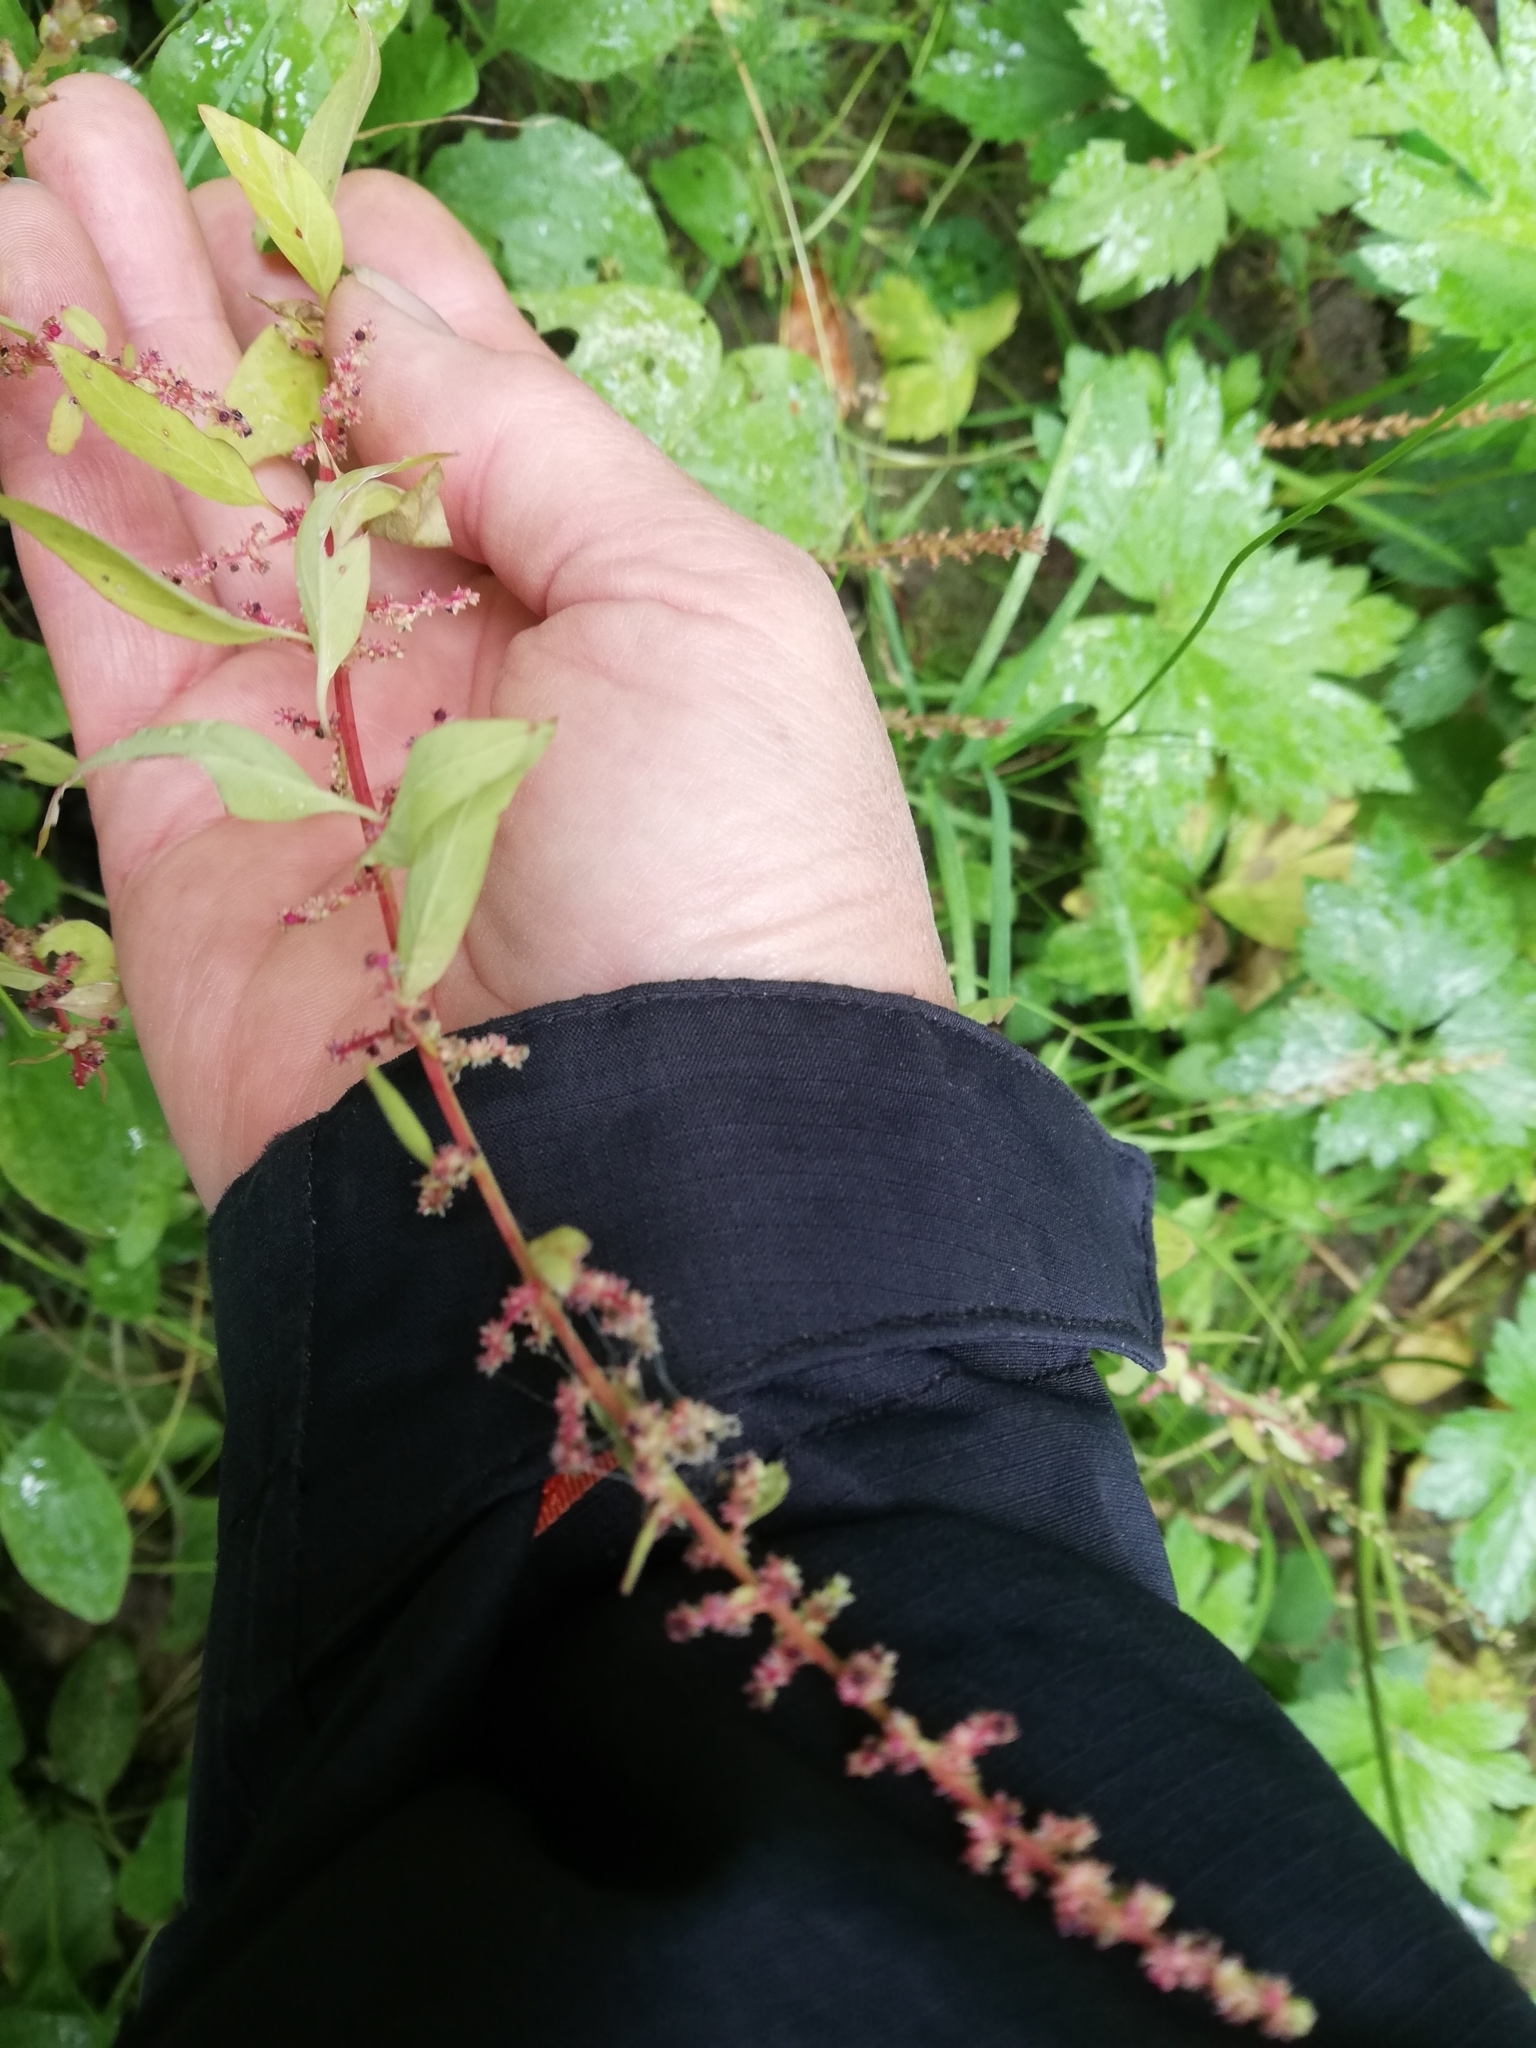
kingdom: Plantae
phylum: Tracheophyta
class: Magnoliopsida
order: Caryophyllales
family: Amaranthaceae
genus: Lipandra
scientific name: Lipandra polysperma
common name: Many-seed goosefoot
